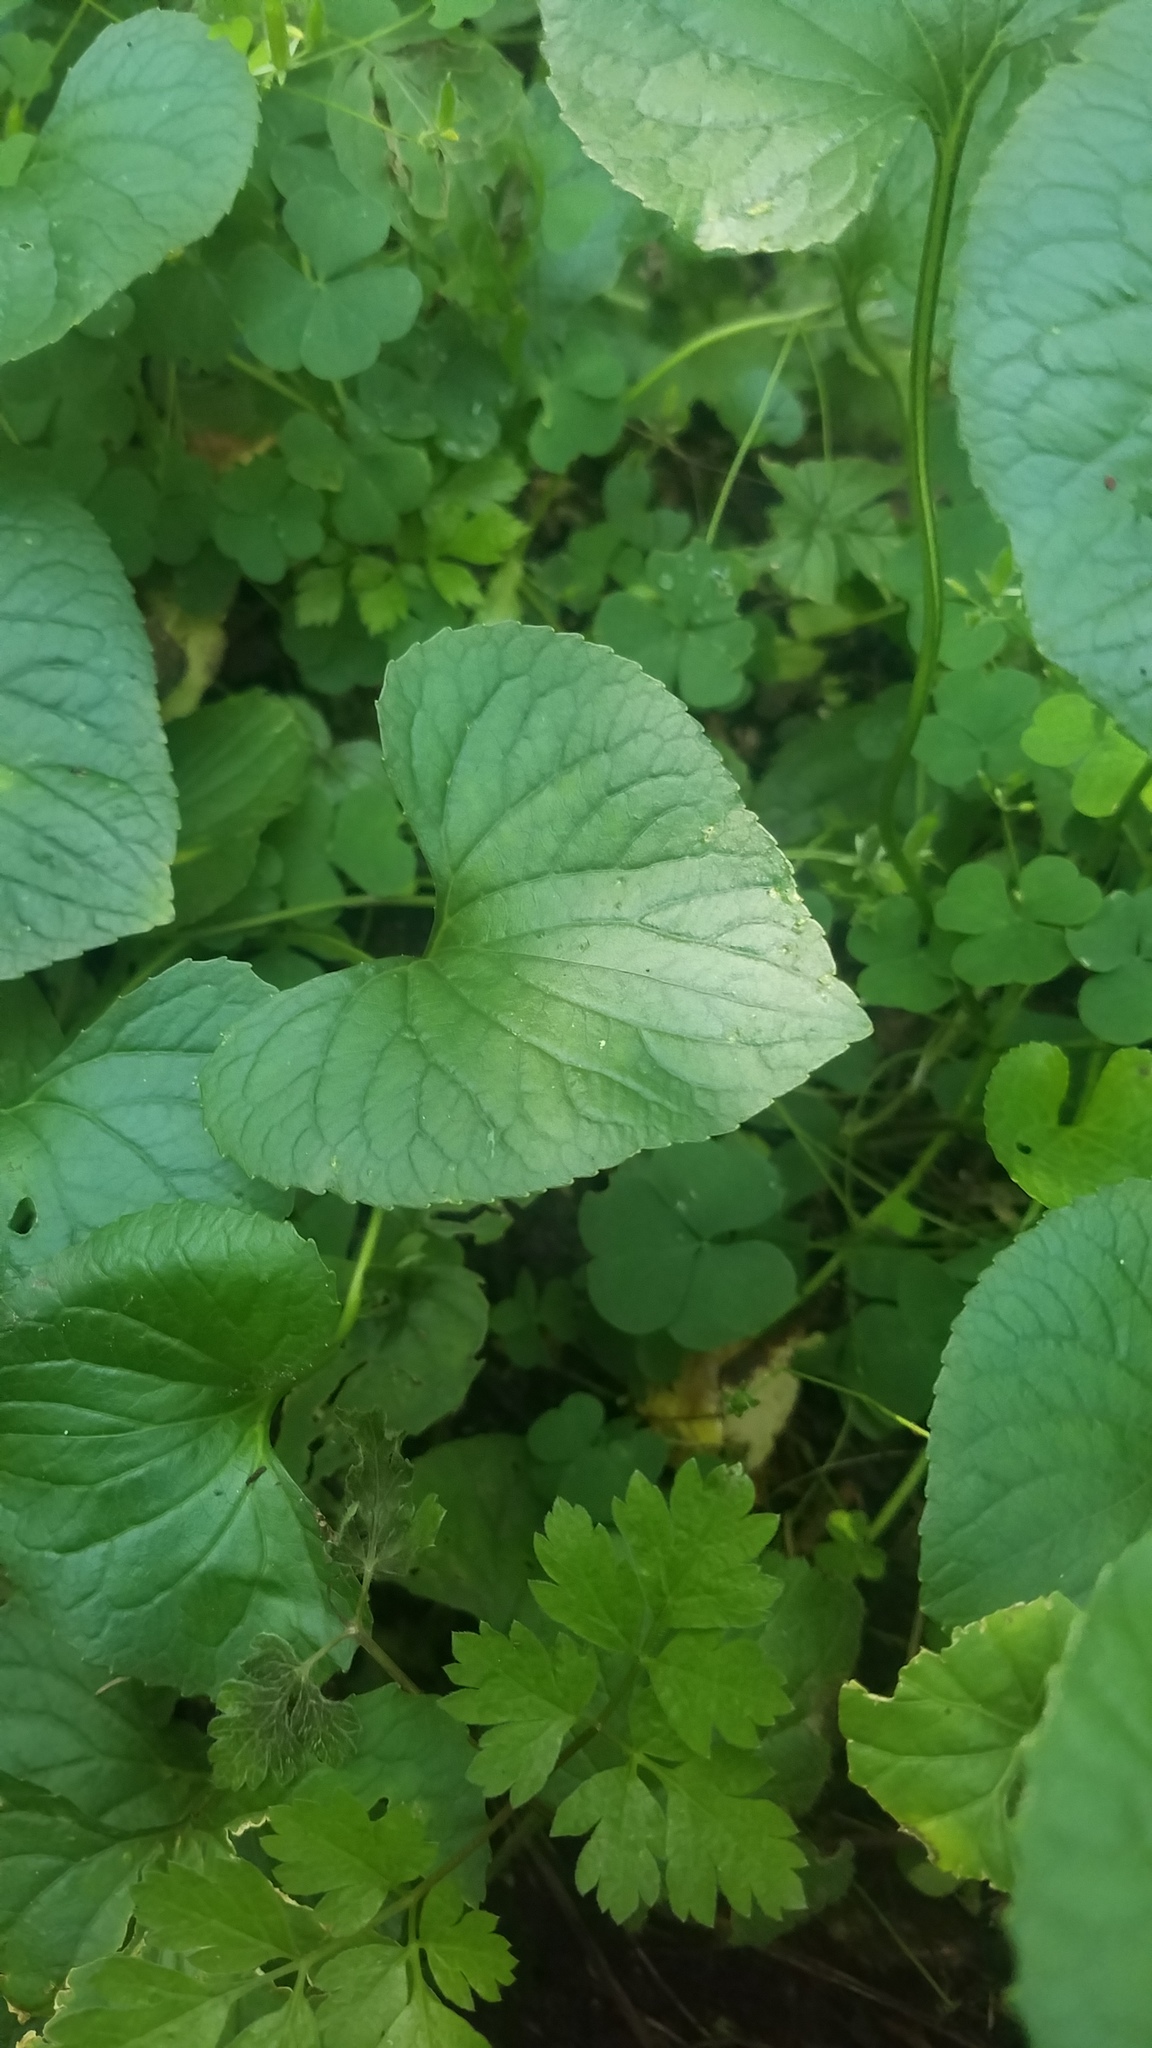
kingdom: Plantae
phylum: Tracheophyta
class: Magnoliopsida
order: Malpighiales
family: Violaceae
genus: Viola
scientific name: Viola
